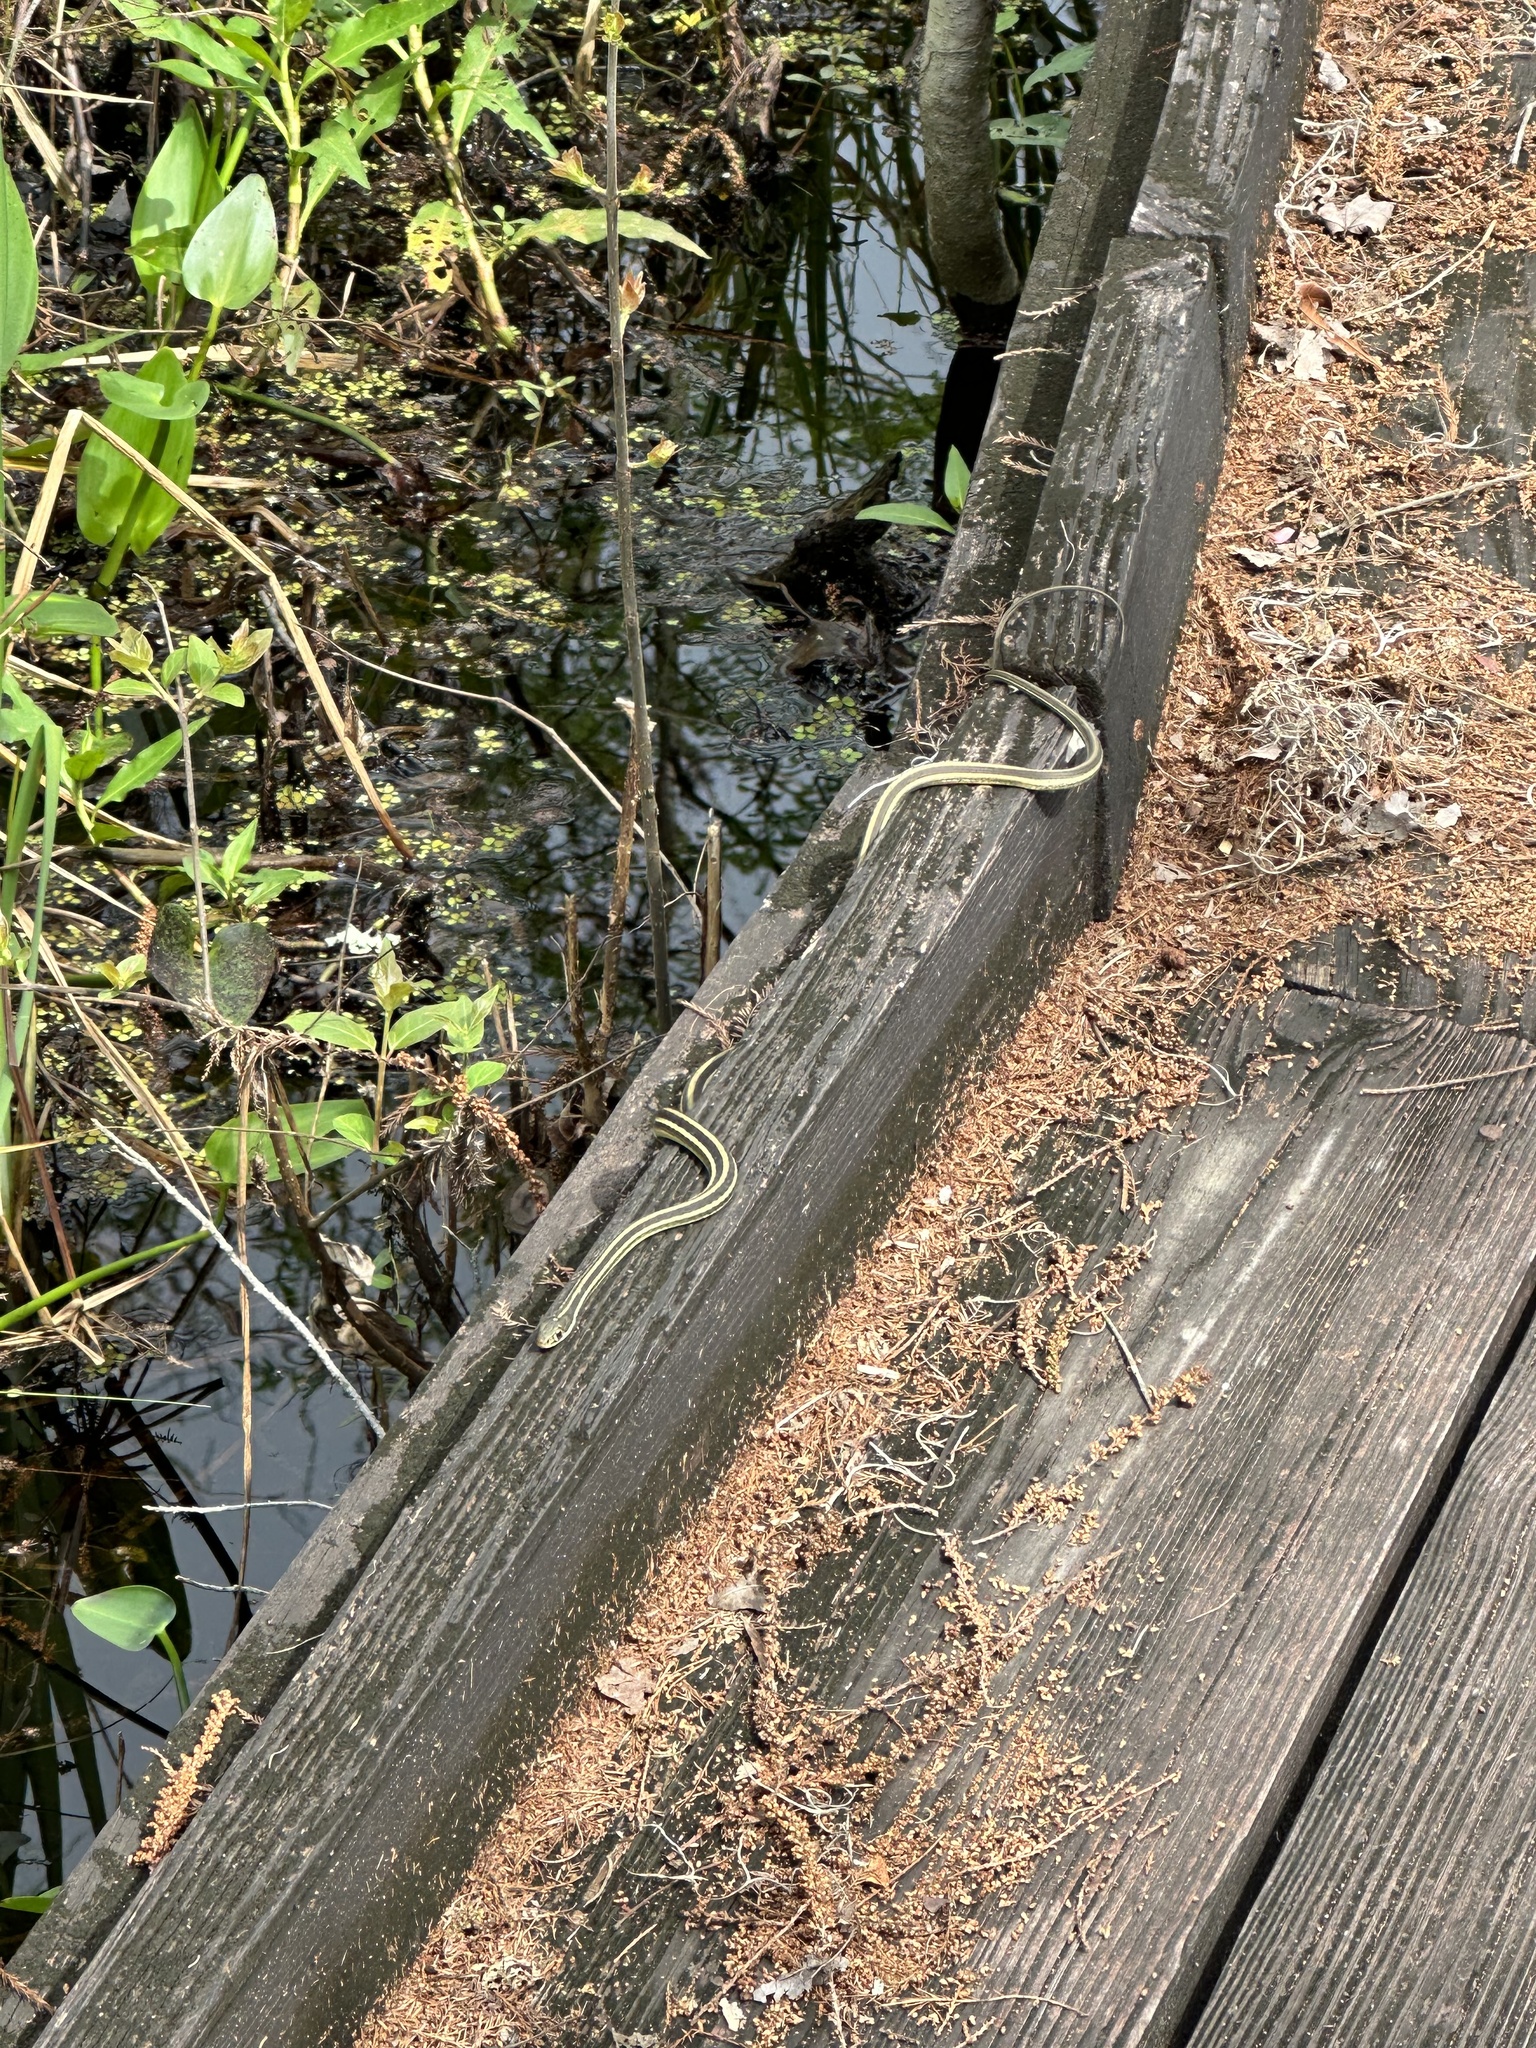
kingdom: Animalia
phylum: Chordata
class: Squamata
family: Colubridae
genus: Thamnophis
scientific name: Thamnophis proximus
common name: Western ribbon snake
